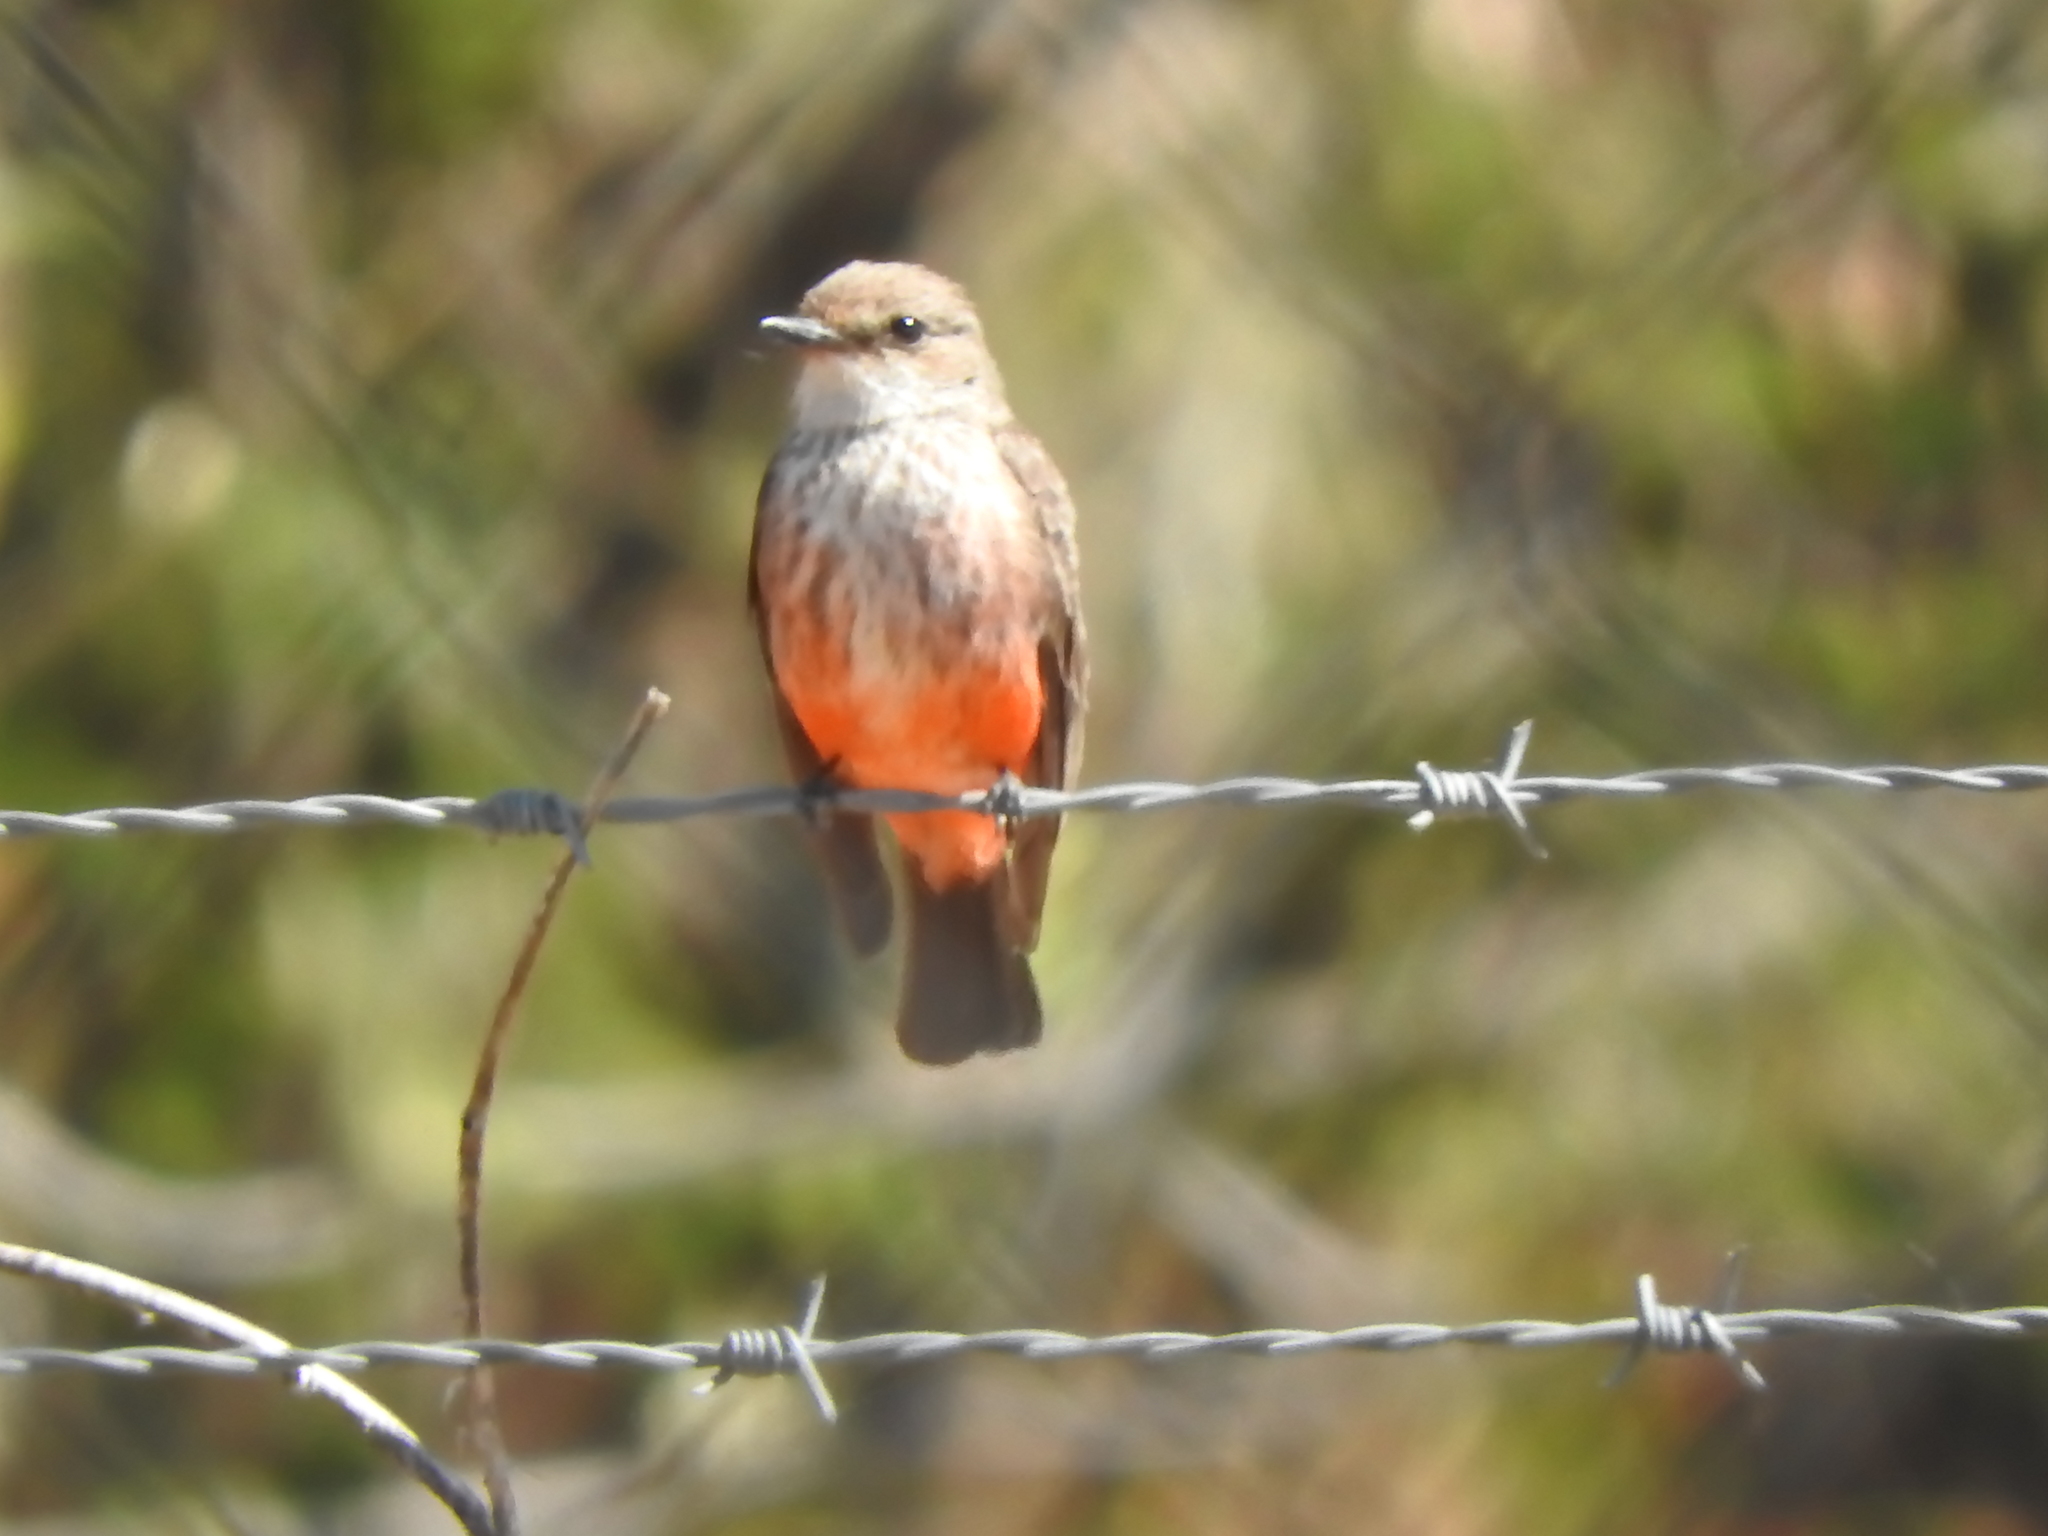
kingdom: Animalia
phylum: Chordata
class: Aves
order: Passeriformes
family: Tyrannidae
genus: Pyrocephalus
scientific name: Pyrocephalus rubinus
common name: Vermilion flycatcher
